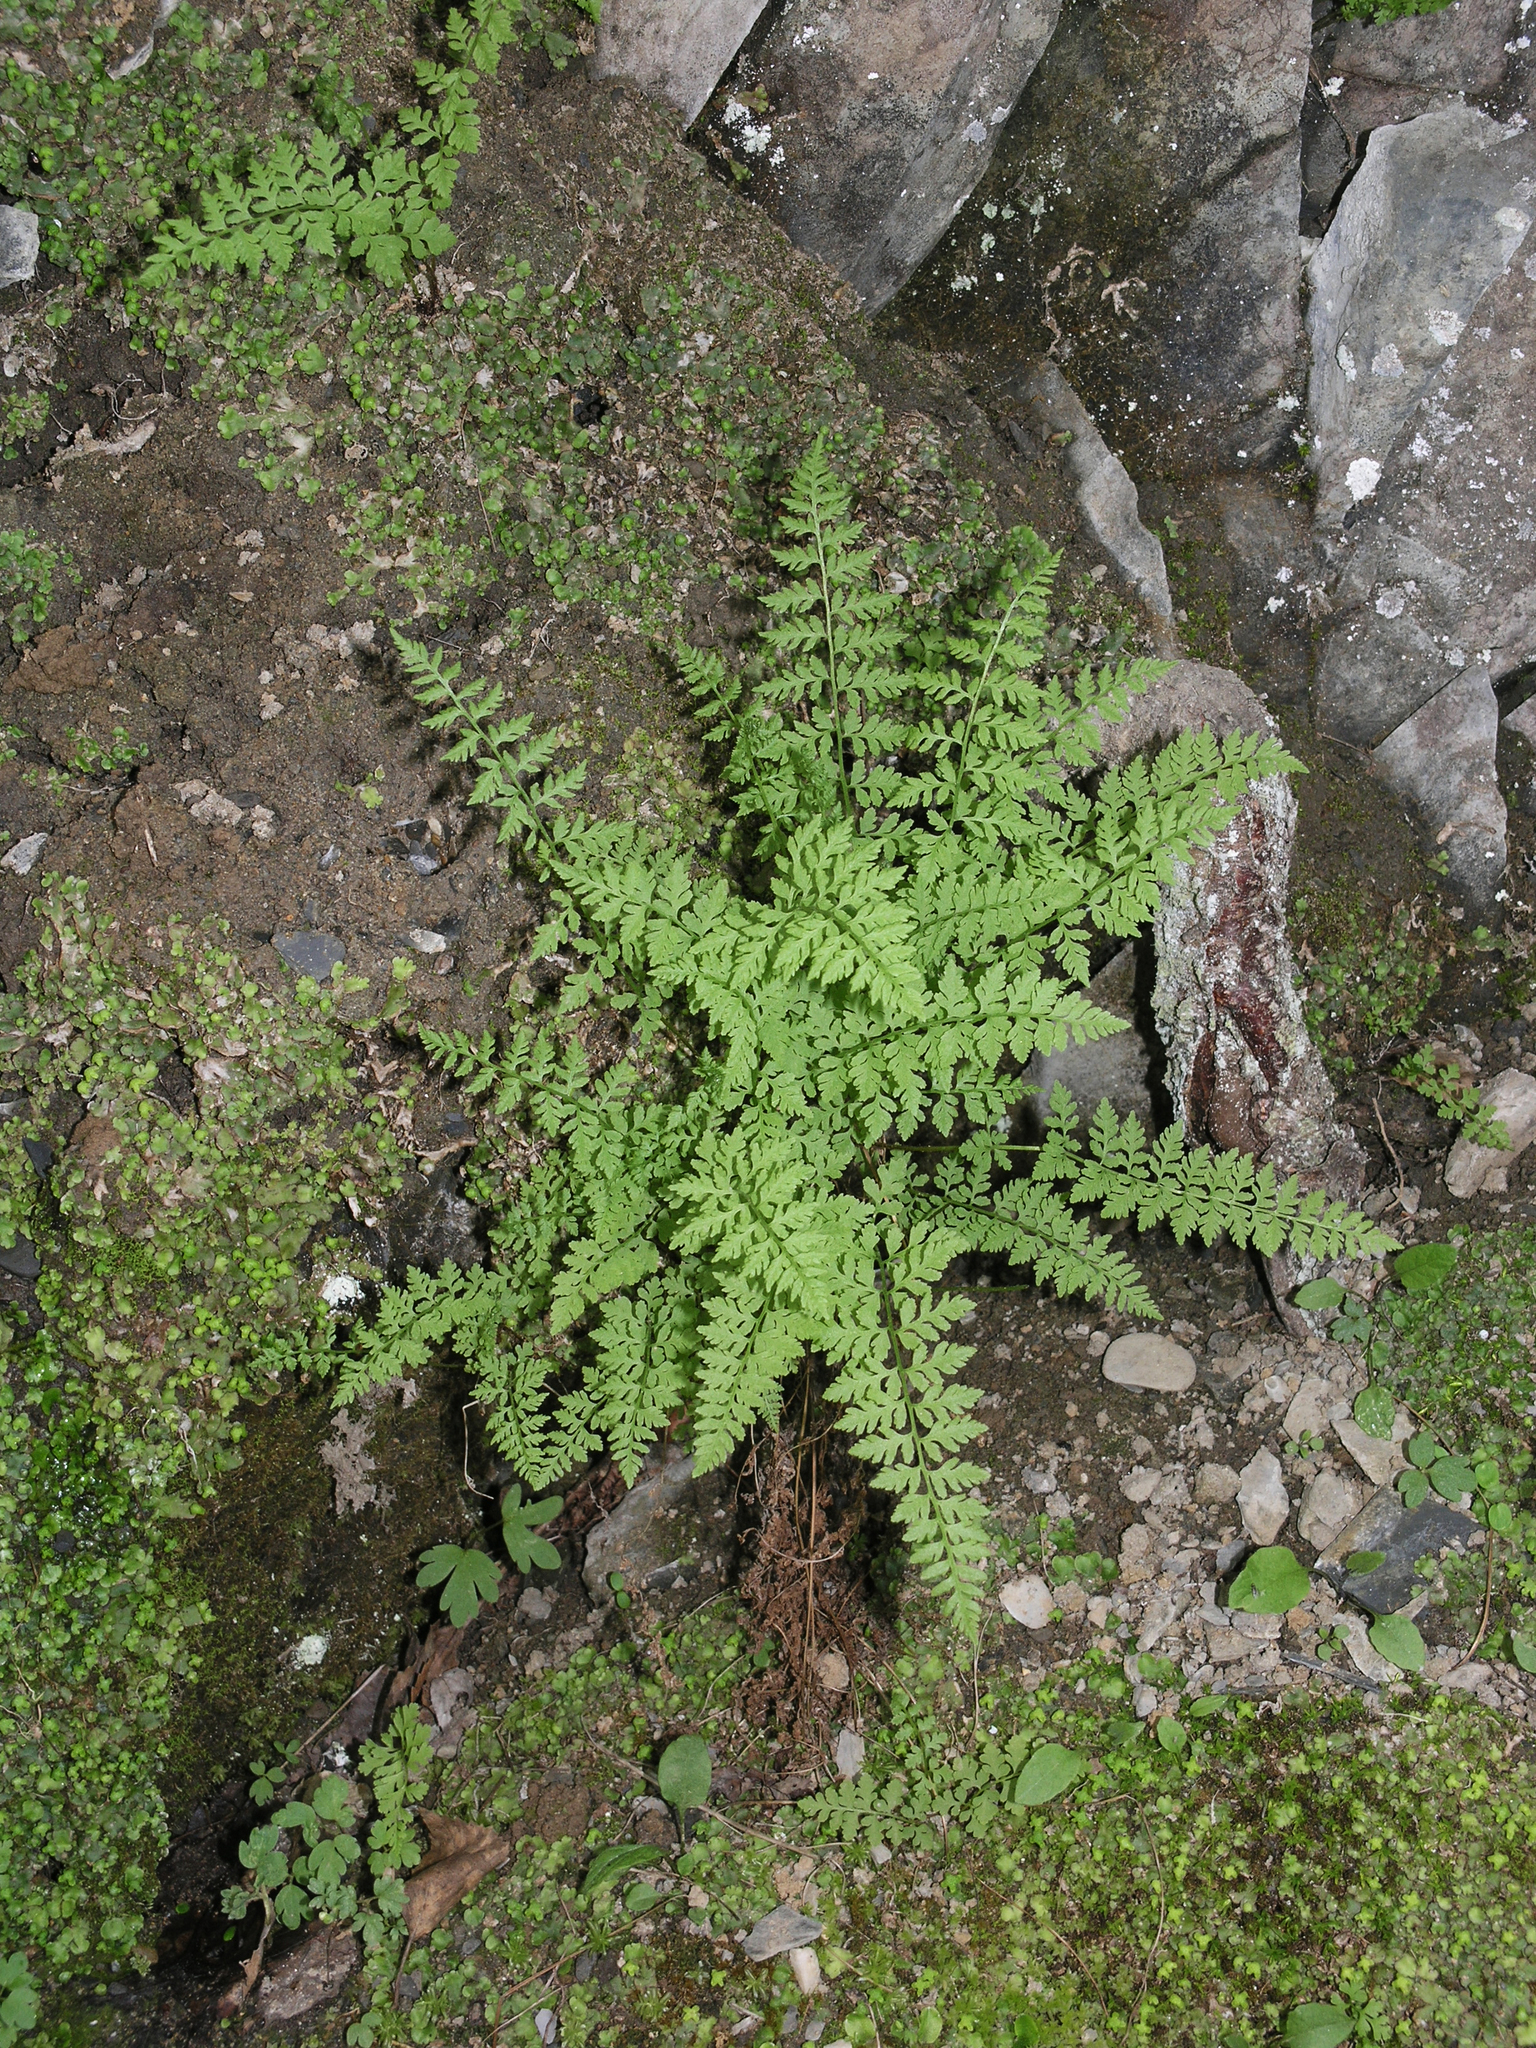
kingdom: Plantae
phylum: Tracheophyta
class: Polypodiopsida
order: Polypodiales
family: Cystopteridaceae
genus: Cystopteris
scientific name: Cystopteris fragilis
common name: Brittle bladder fern
